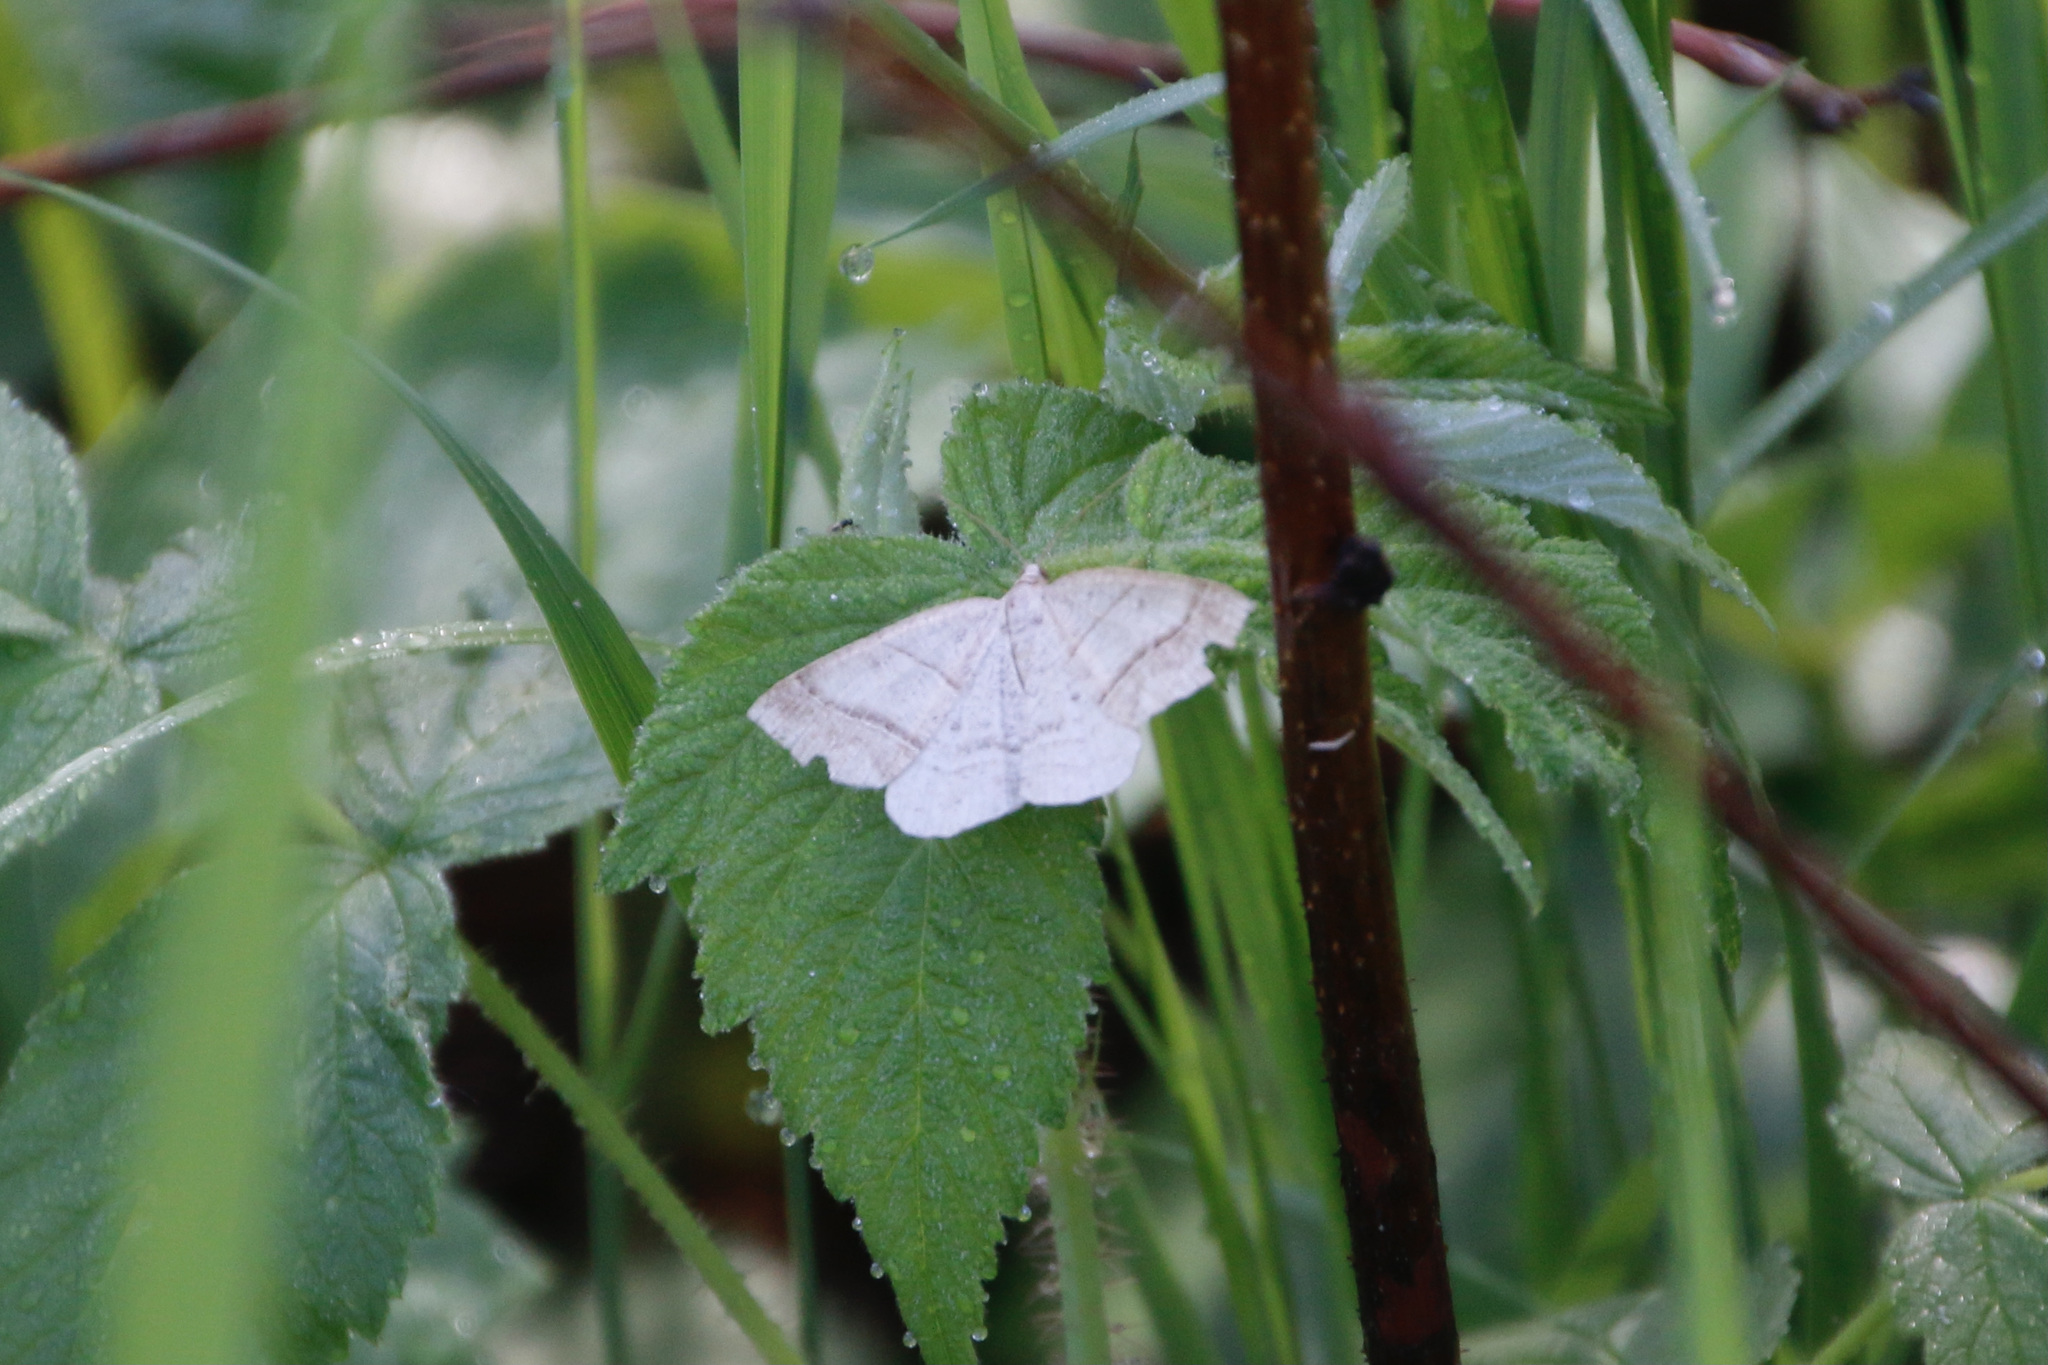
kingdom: Animalia
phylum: Arthropoda
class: Insecta
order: Lepidoptera
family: Pterophoridae
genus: Pterophorus
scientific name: Pterophorus Petrophora subaequaria
